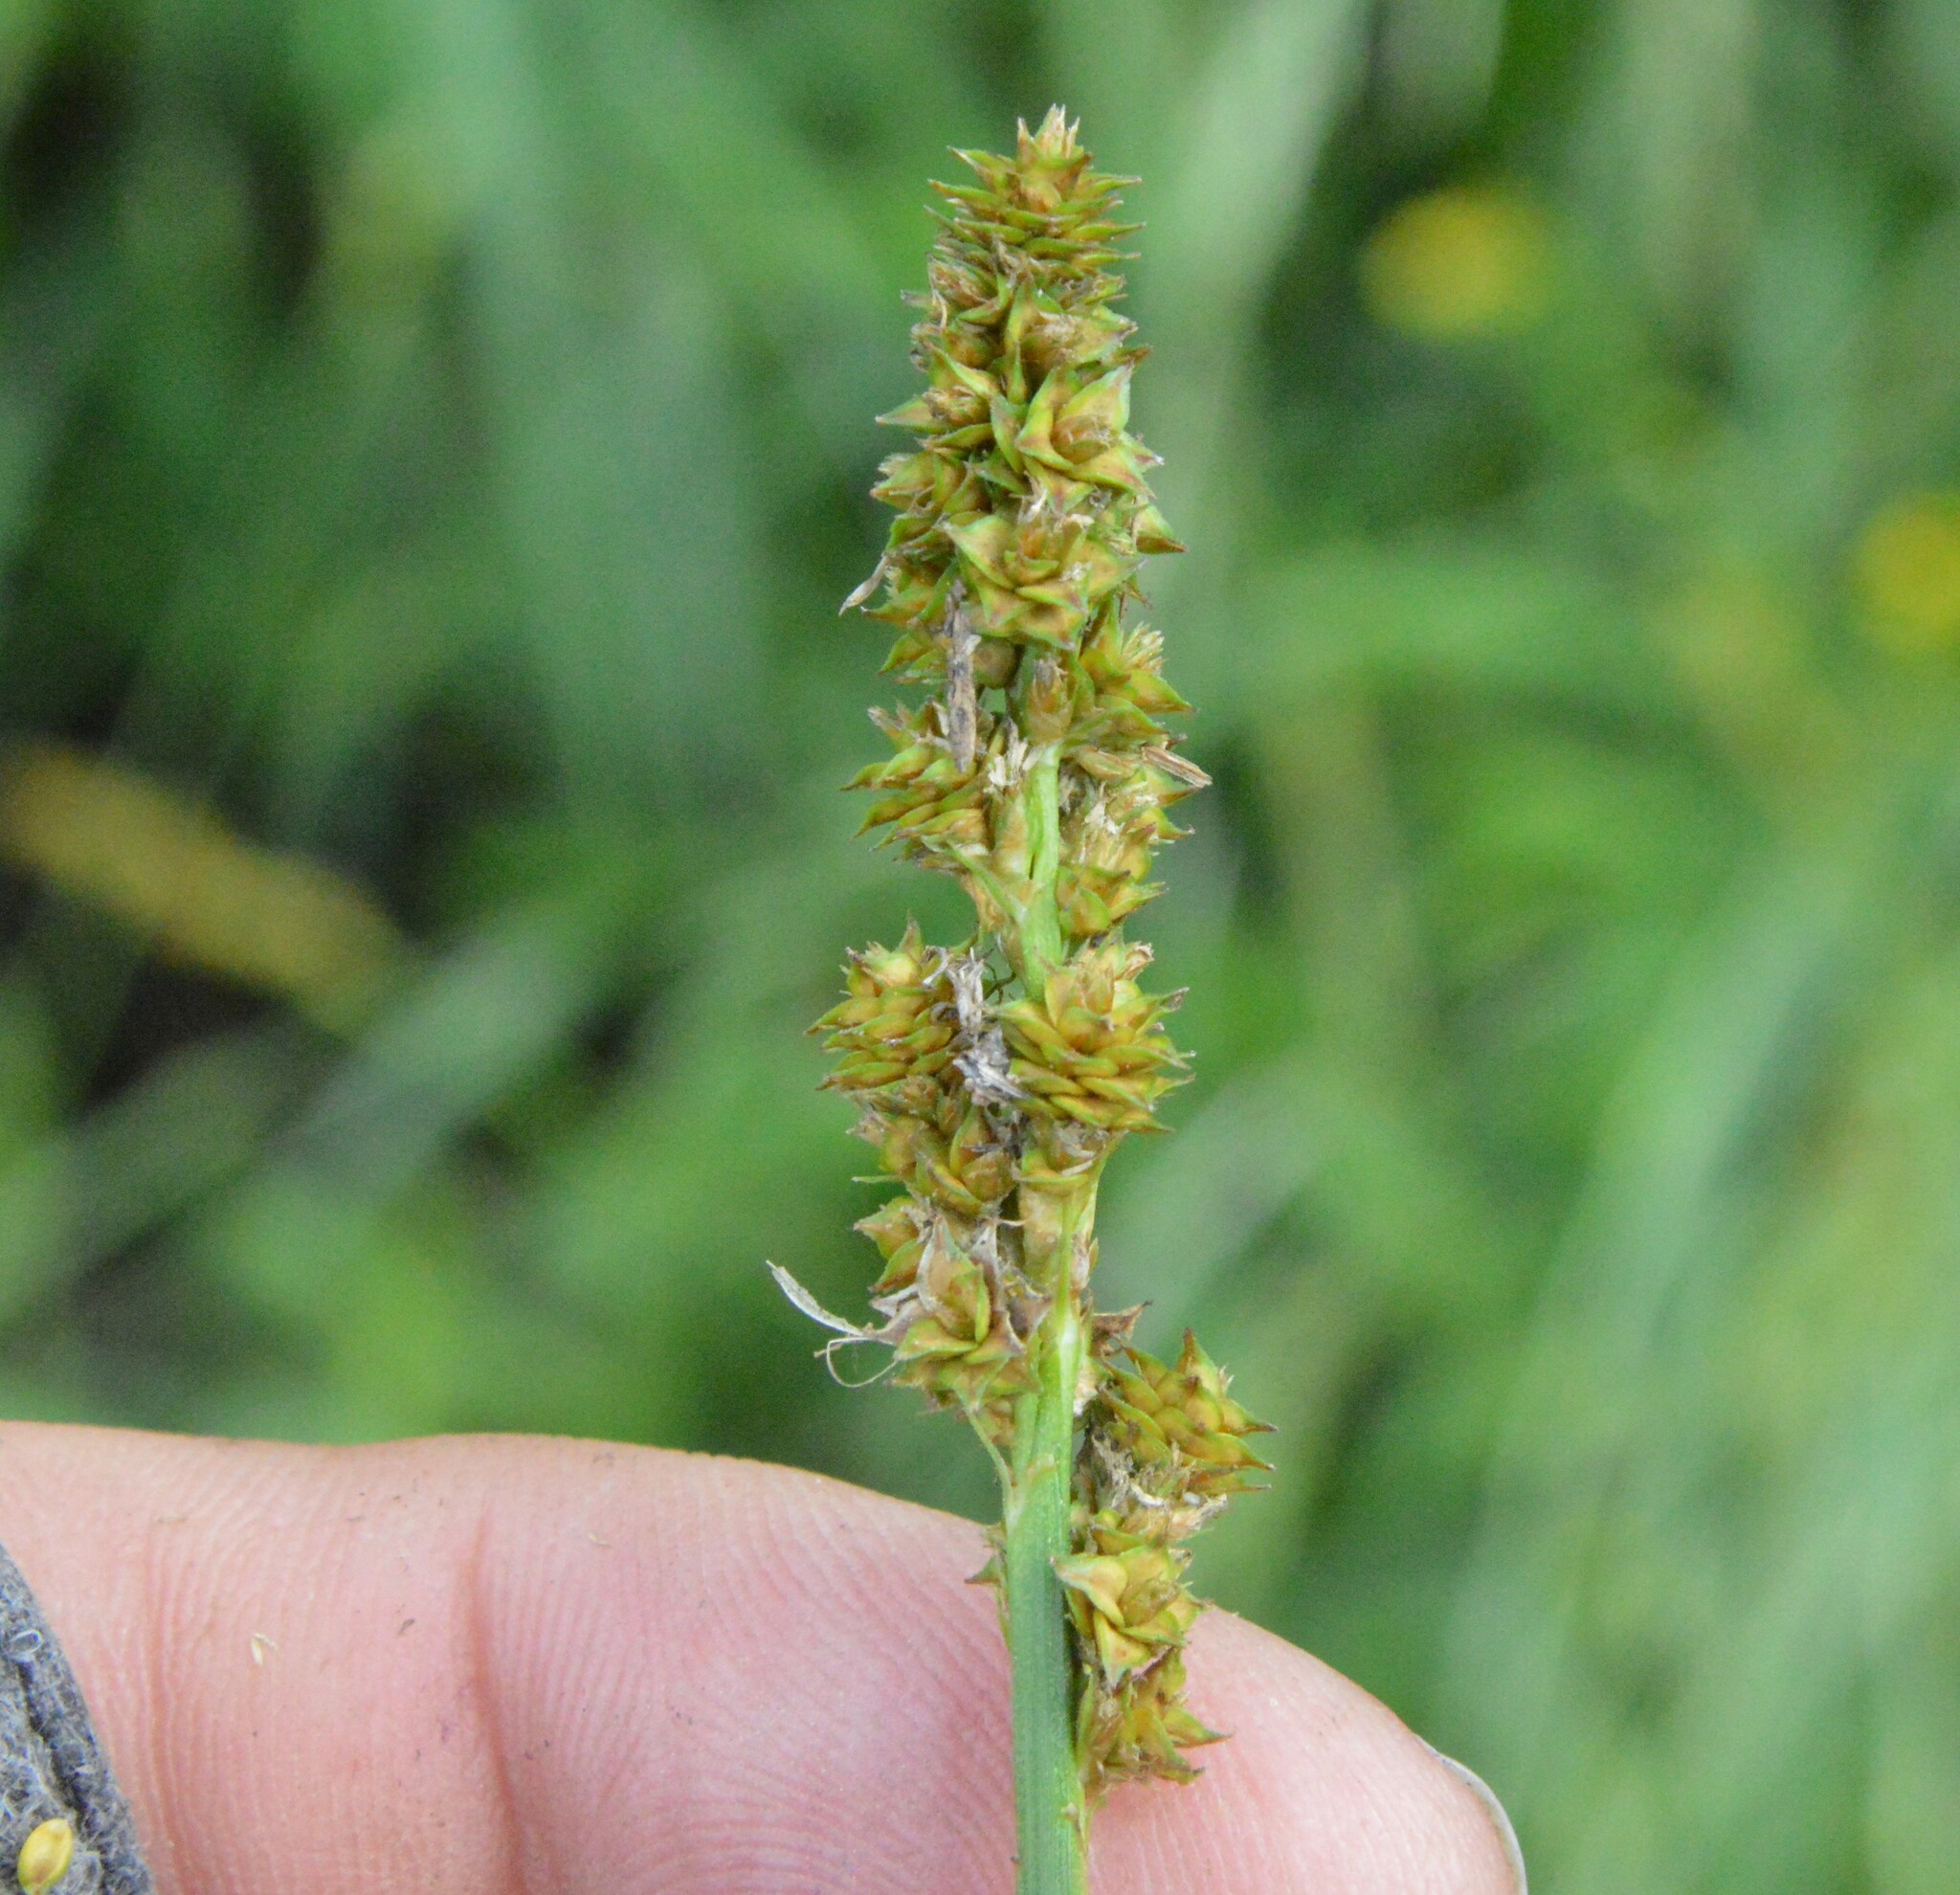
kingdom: Plantae
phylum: Tracheophyta
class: Liliopsida
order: Poales
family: Cyperaceae
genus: Carex
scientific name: Carex triangularis
